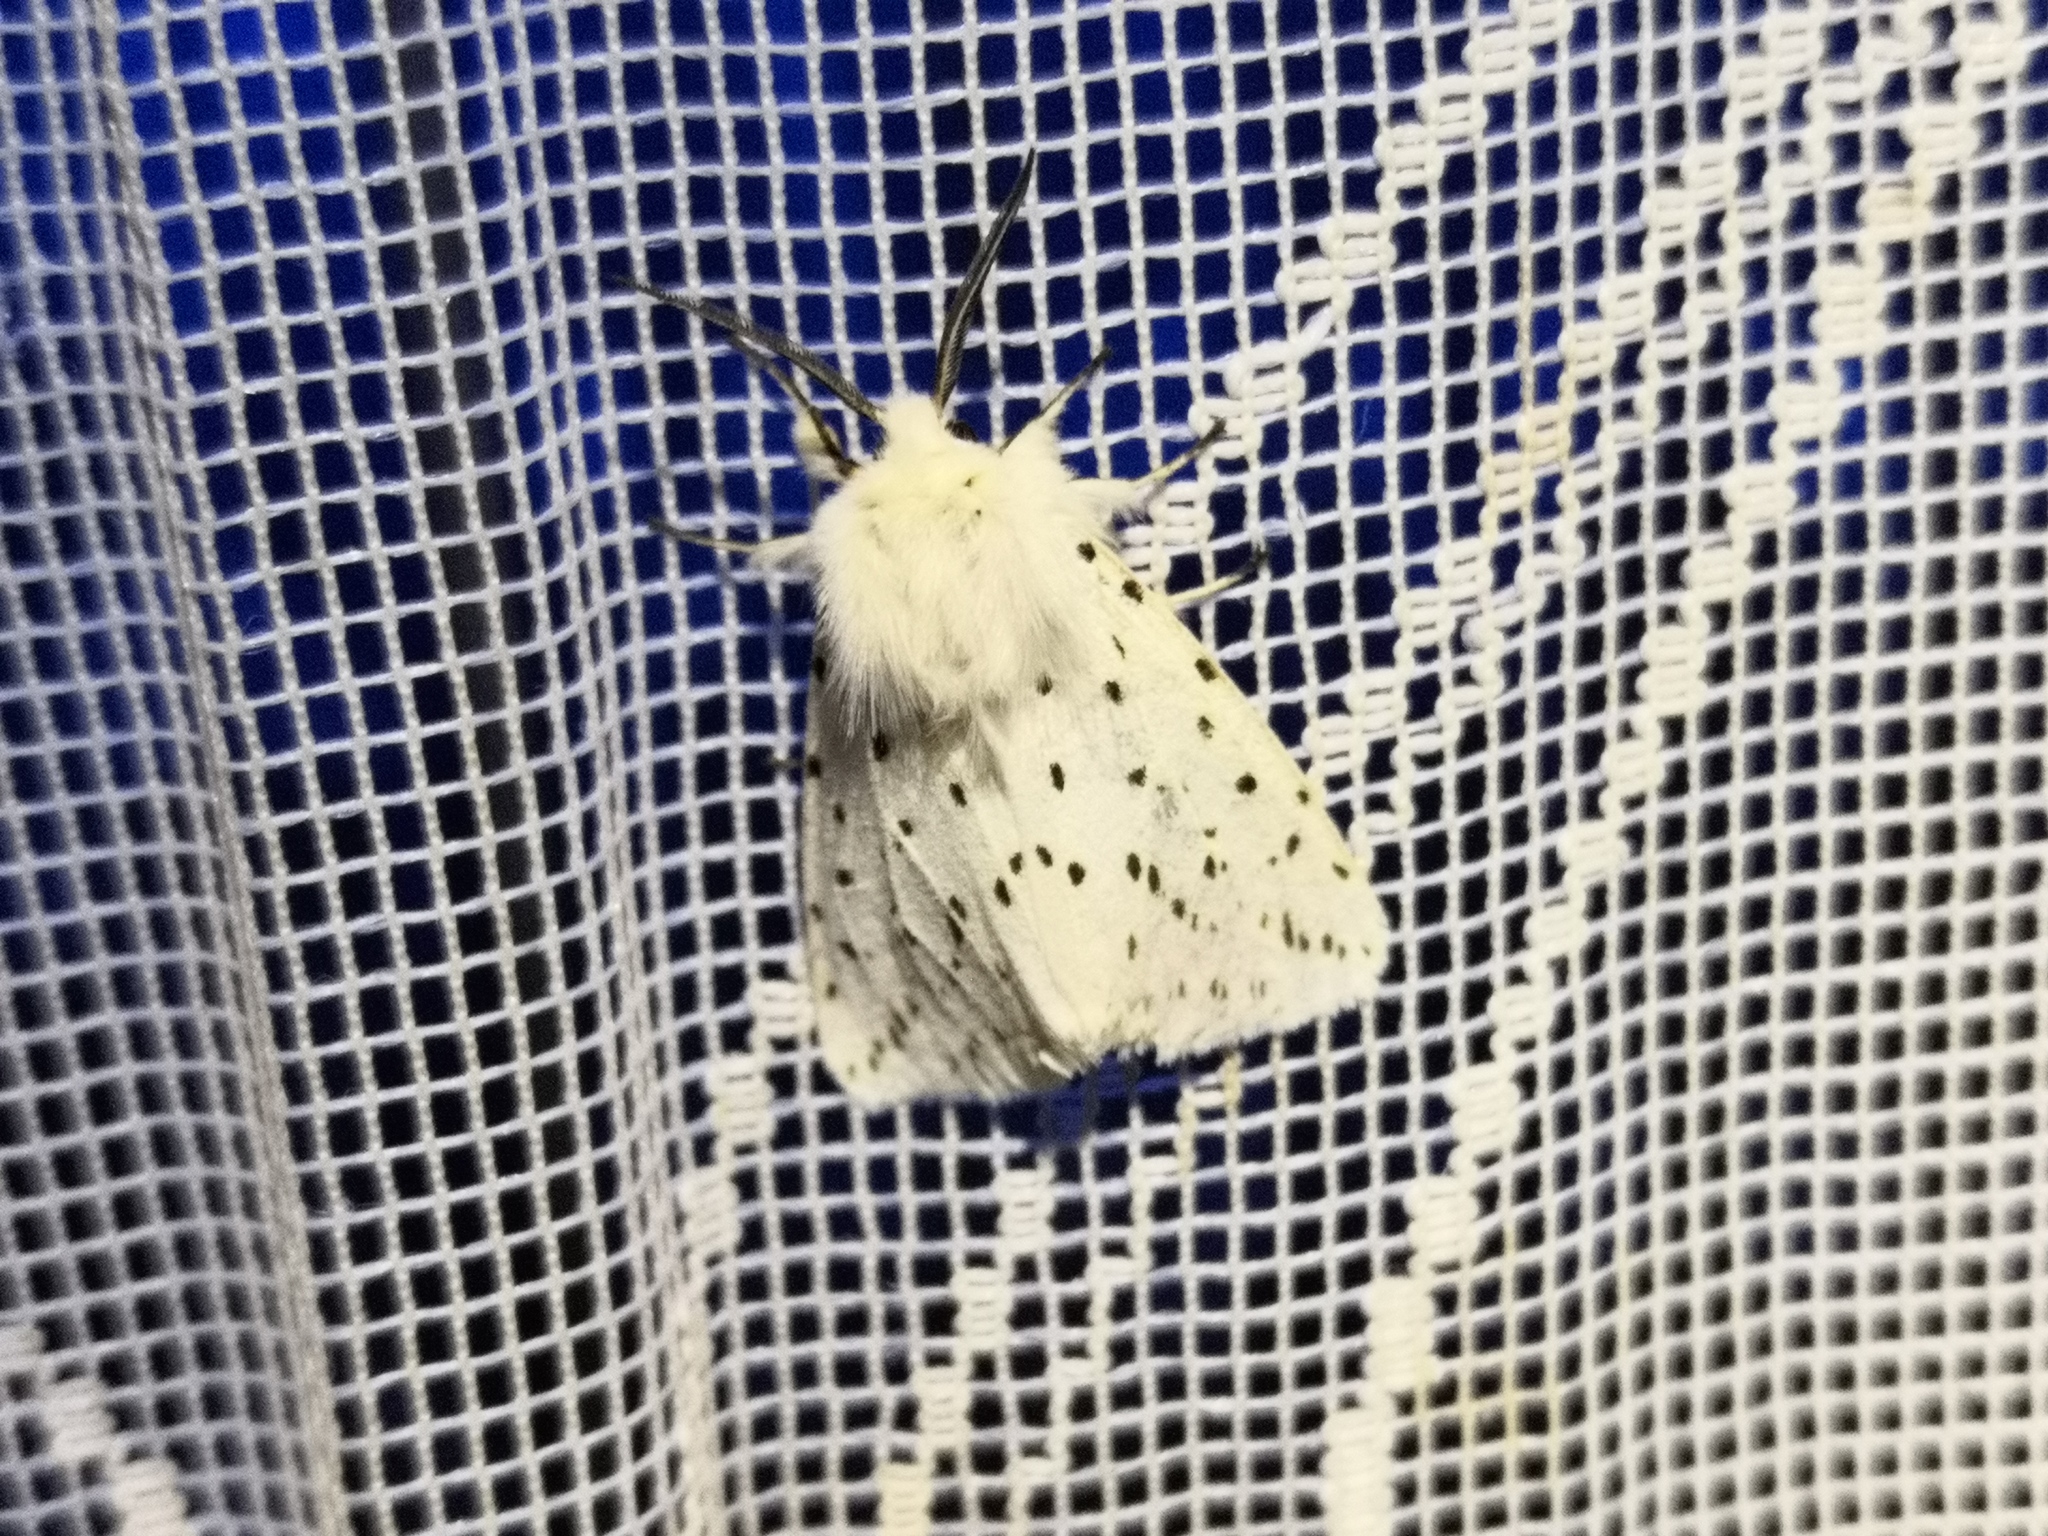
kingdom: Animalia
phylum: Arthropoda
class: Insecta
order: Lepidoptera
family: Erebidae
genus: Spilosoma
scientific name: Spilosoma lubricipeda
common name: White ermine
